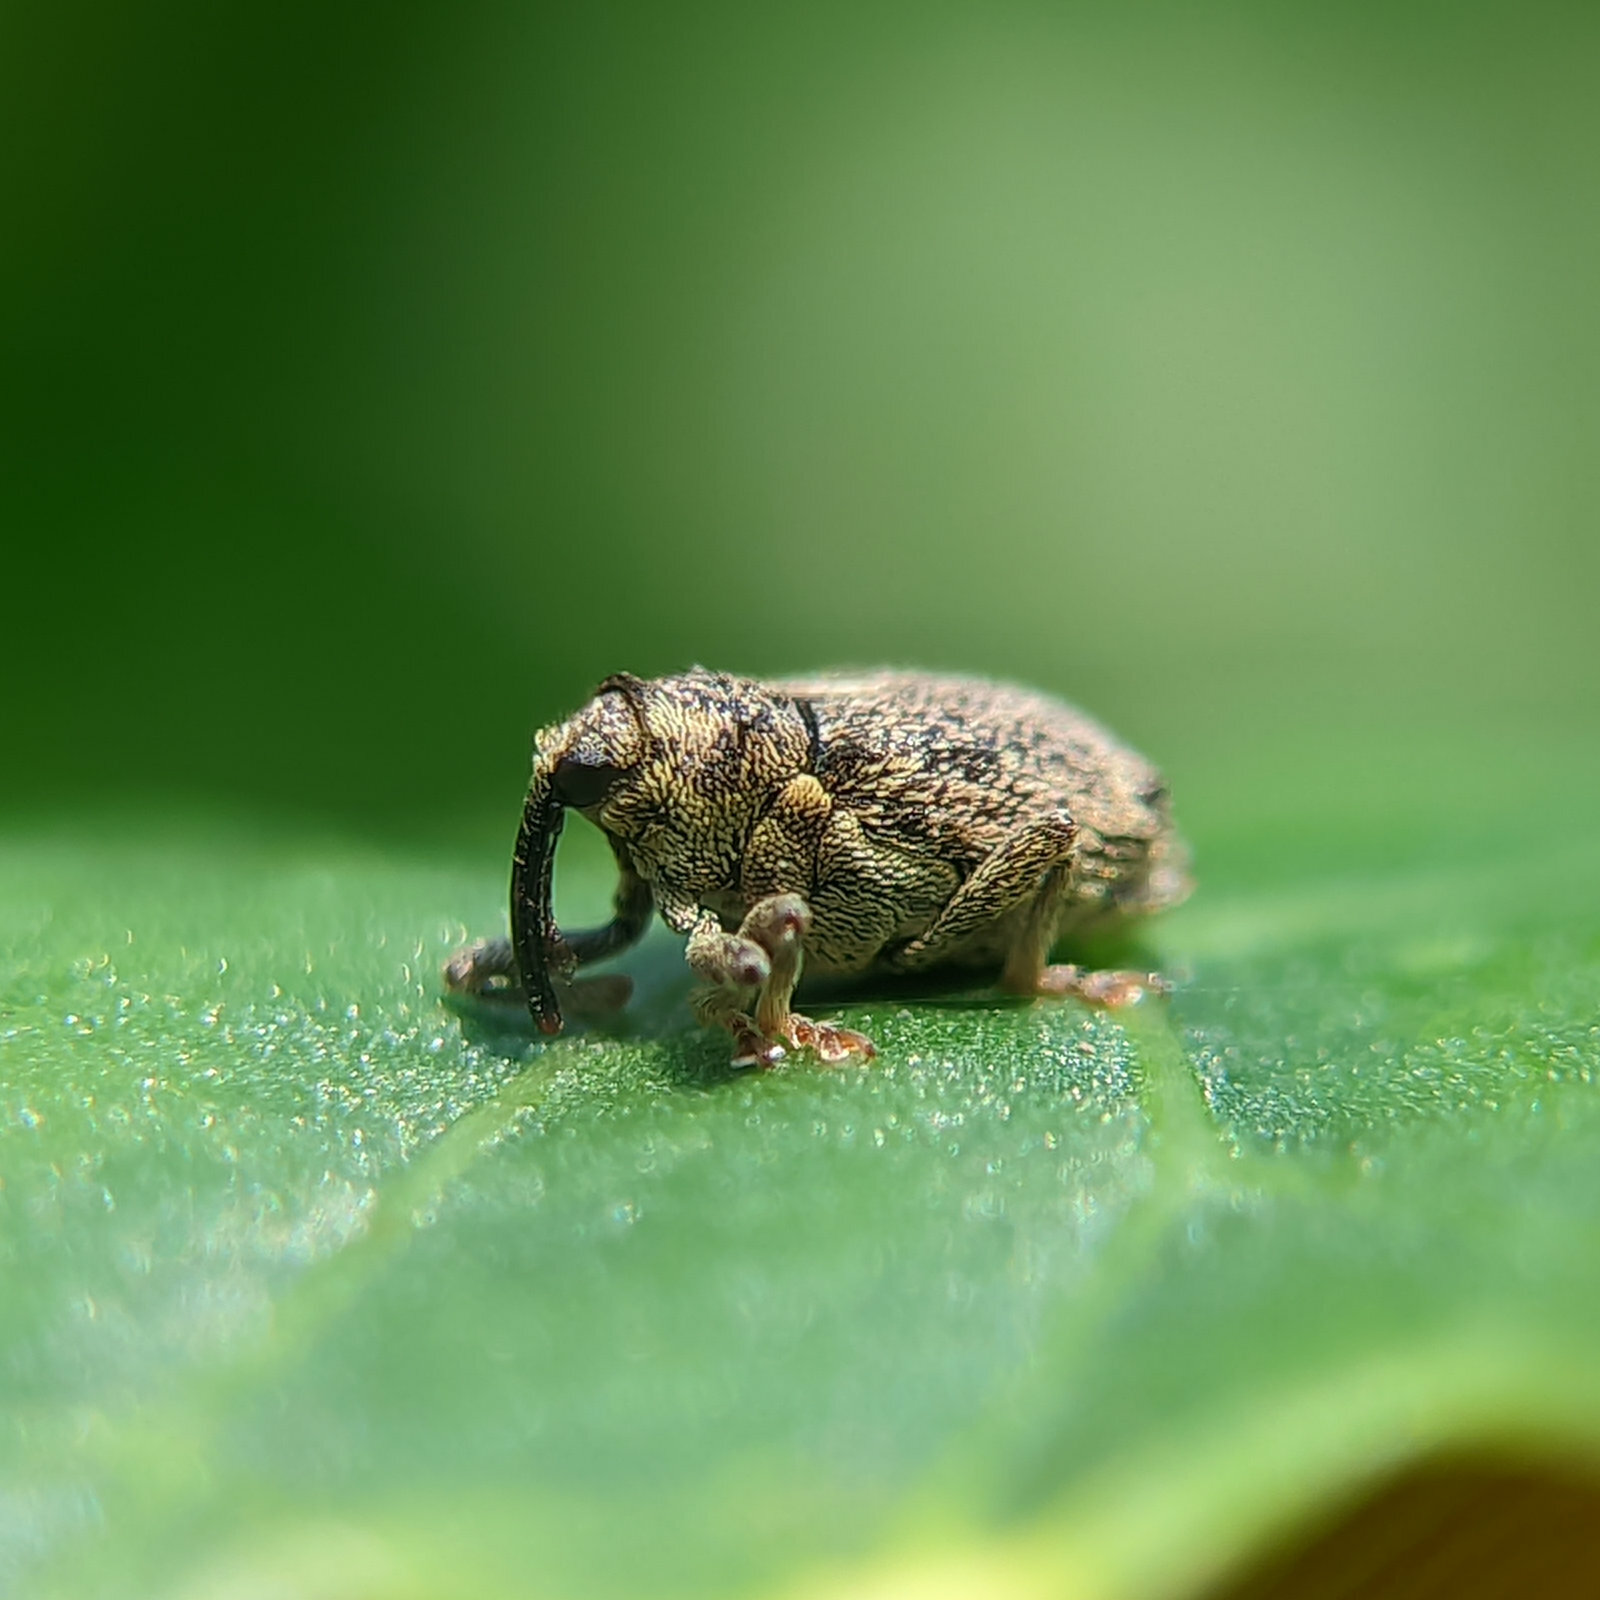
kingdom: Animalia
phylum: Arthropoda
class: Insecta
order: Coleoptera
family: Curculionidae
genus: Ceutorhynchus
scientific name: Ceutorhynchus pallidactylus
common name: Cabbage stem weavil
